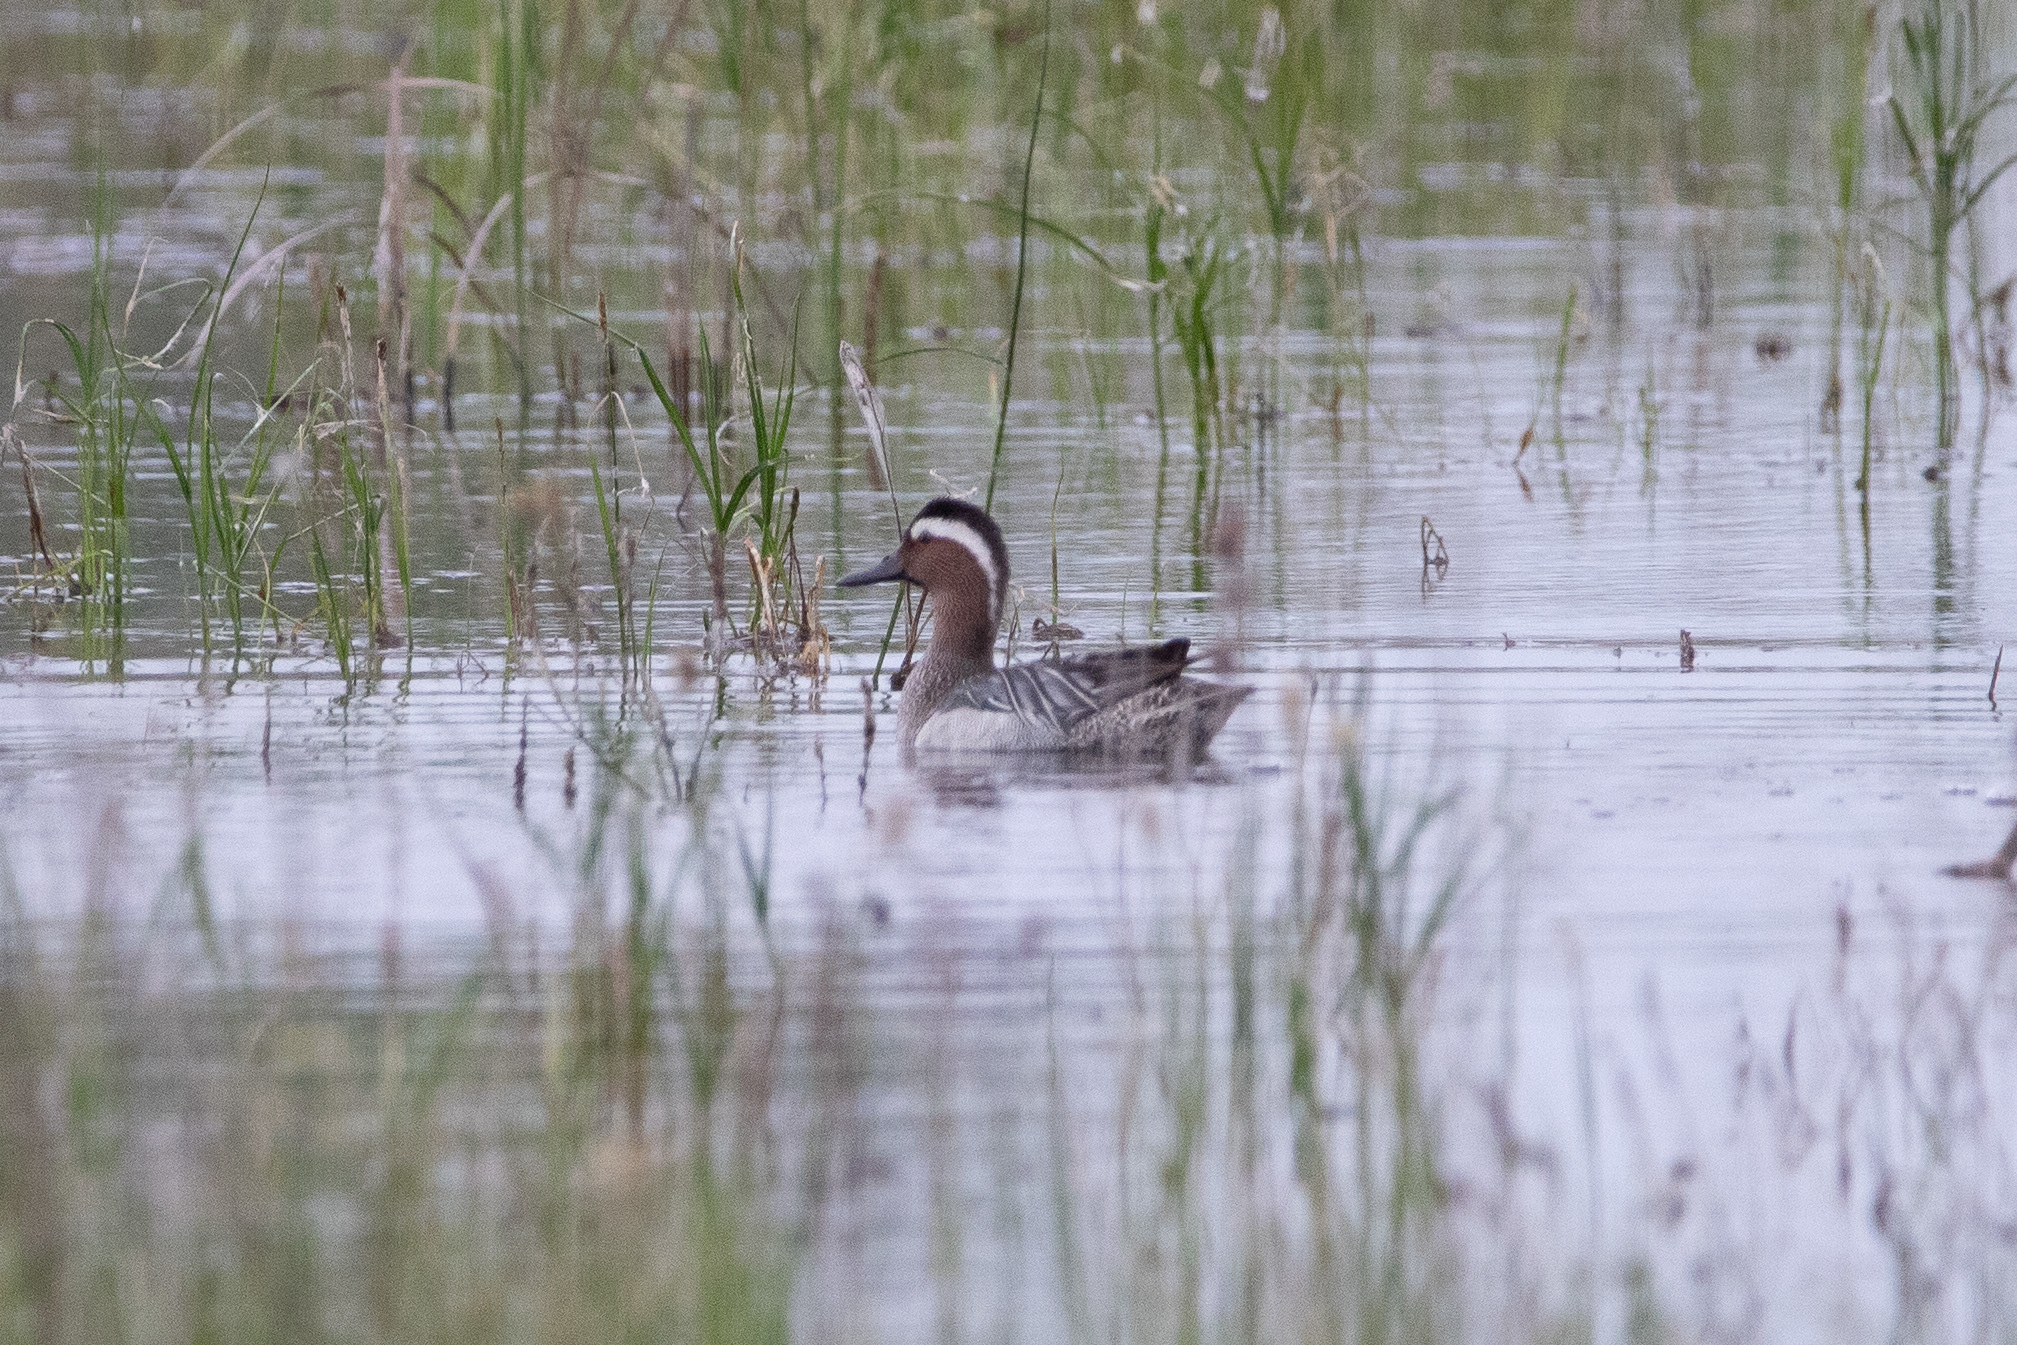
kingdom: Animalia
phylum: Chordata
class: Aves
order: Anseriformes
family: Anatidae
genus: Spatula
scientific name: Spatula querquedula
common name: Garganey
